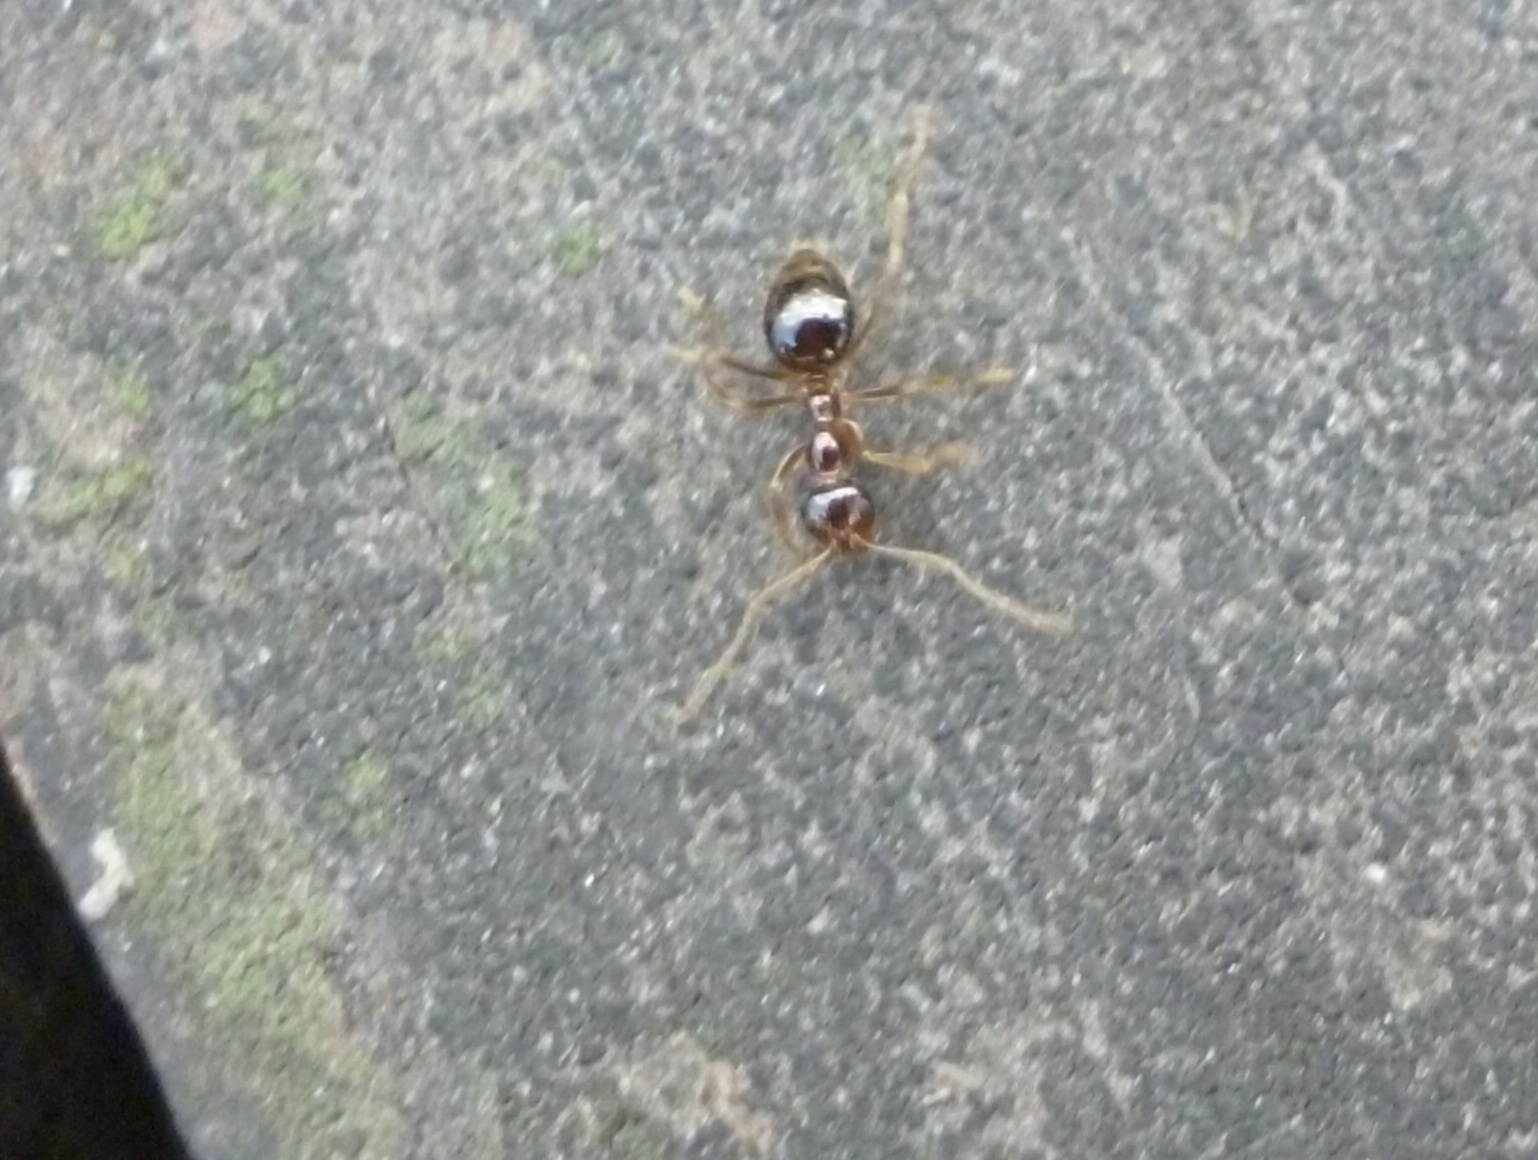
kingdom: Animalia
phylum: Arthropoda
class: Insecta
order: Hymenoptera
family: Formicidae
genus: Prenolepis
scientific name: Prenolepis imparis
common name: Small honey ant
